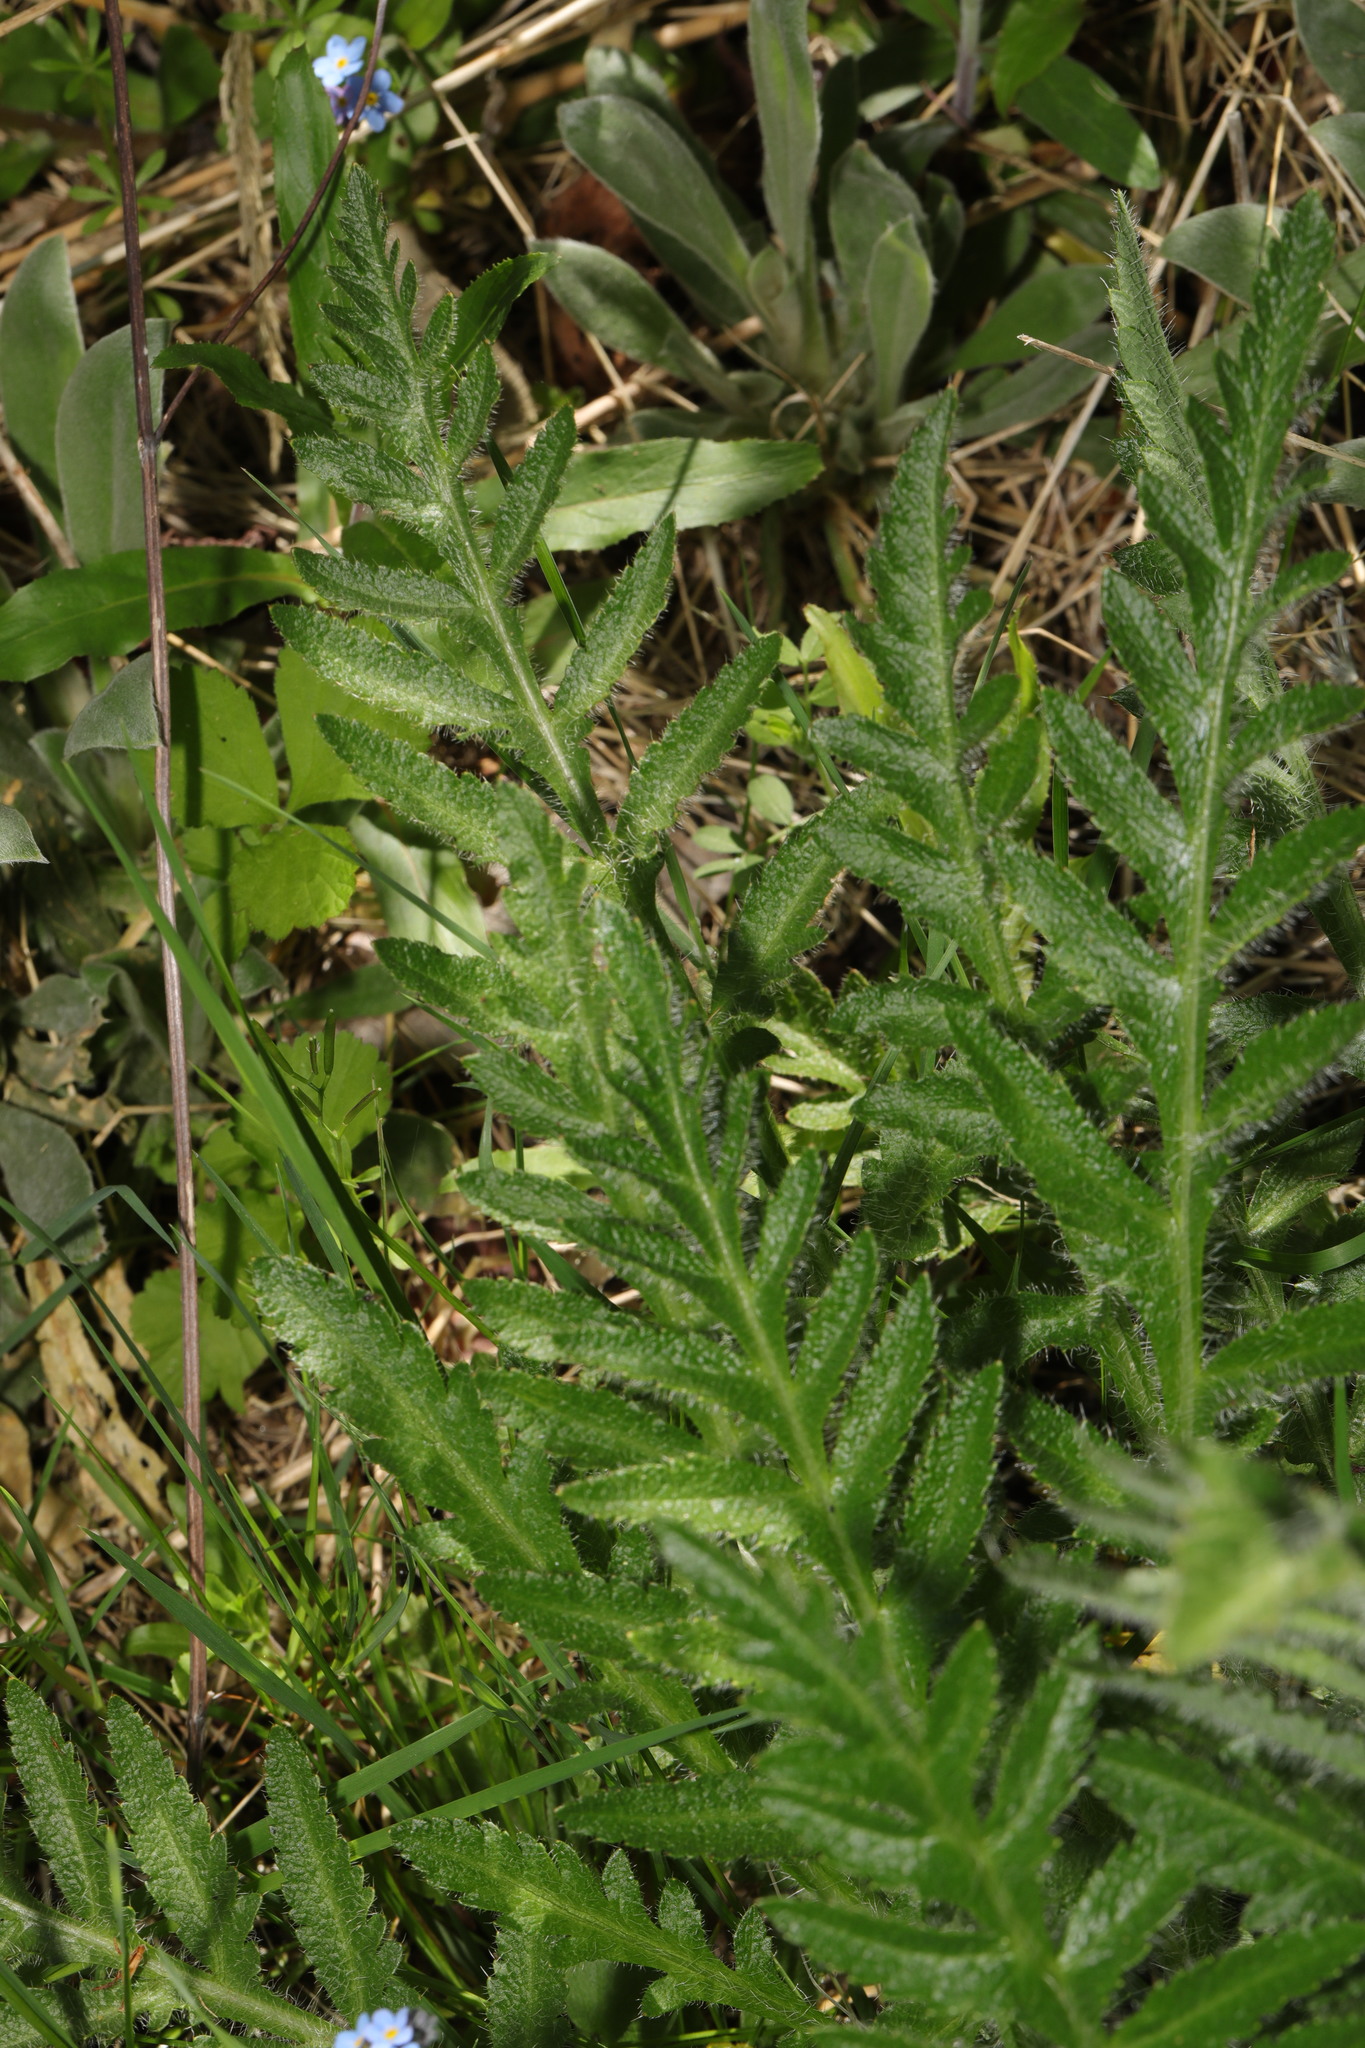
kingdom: Plantae
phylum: Tracheophyta
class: Magnoliopsida
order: Ranunculales
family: Papaveraceae
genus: Papaver
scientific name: Papaver orientale
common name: Oriental poppy
